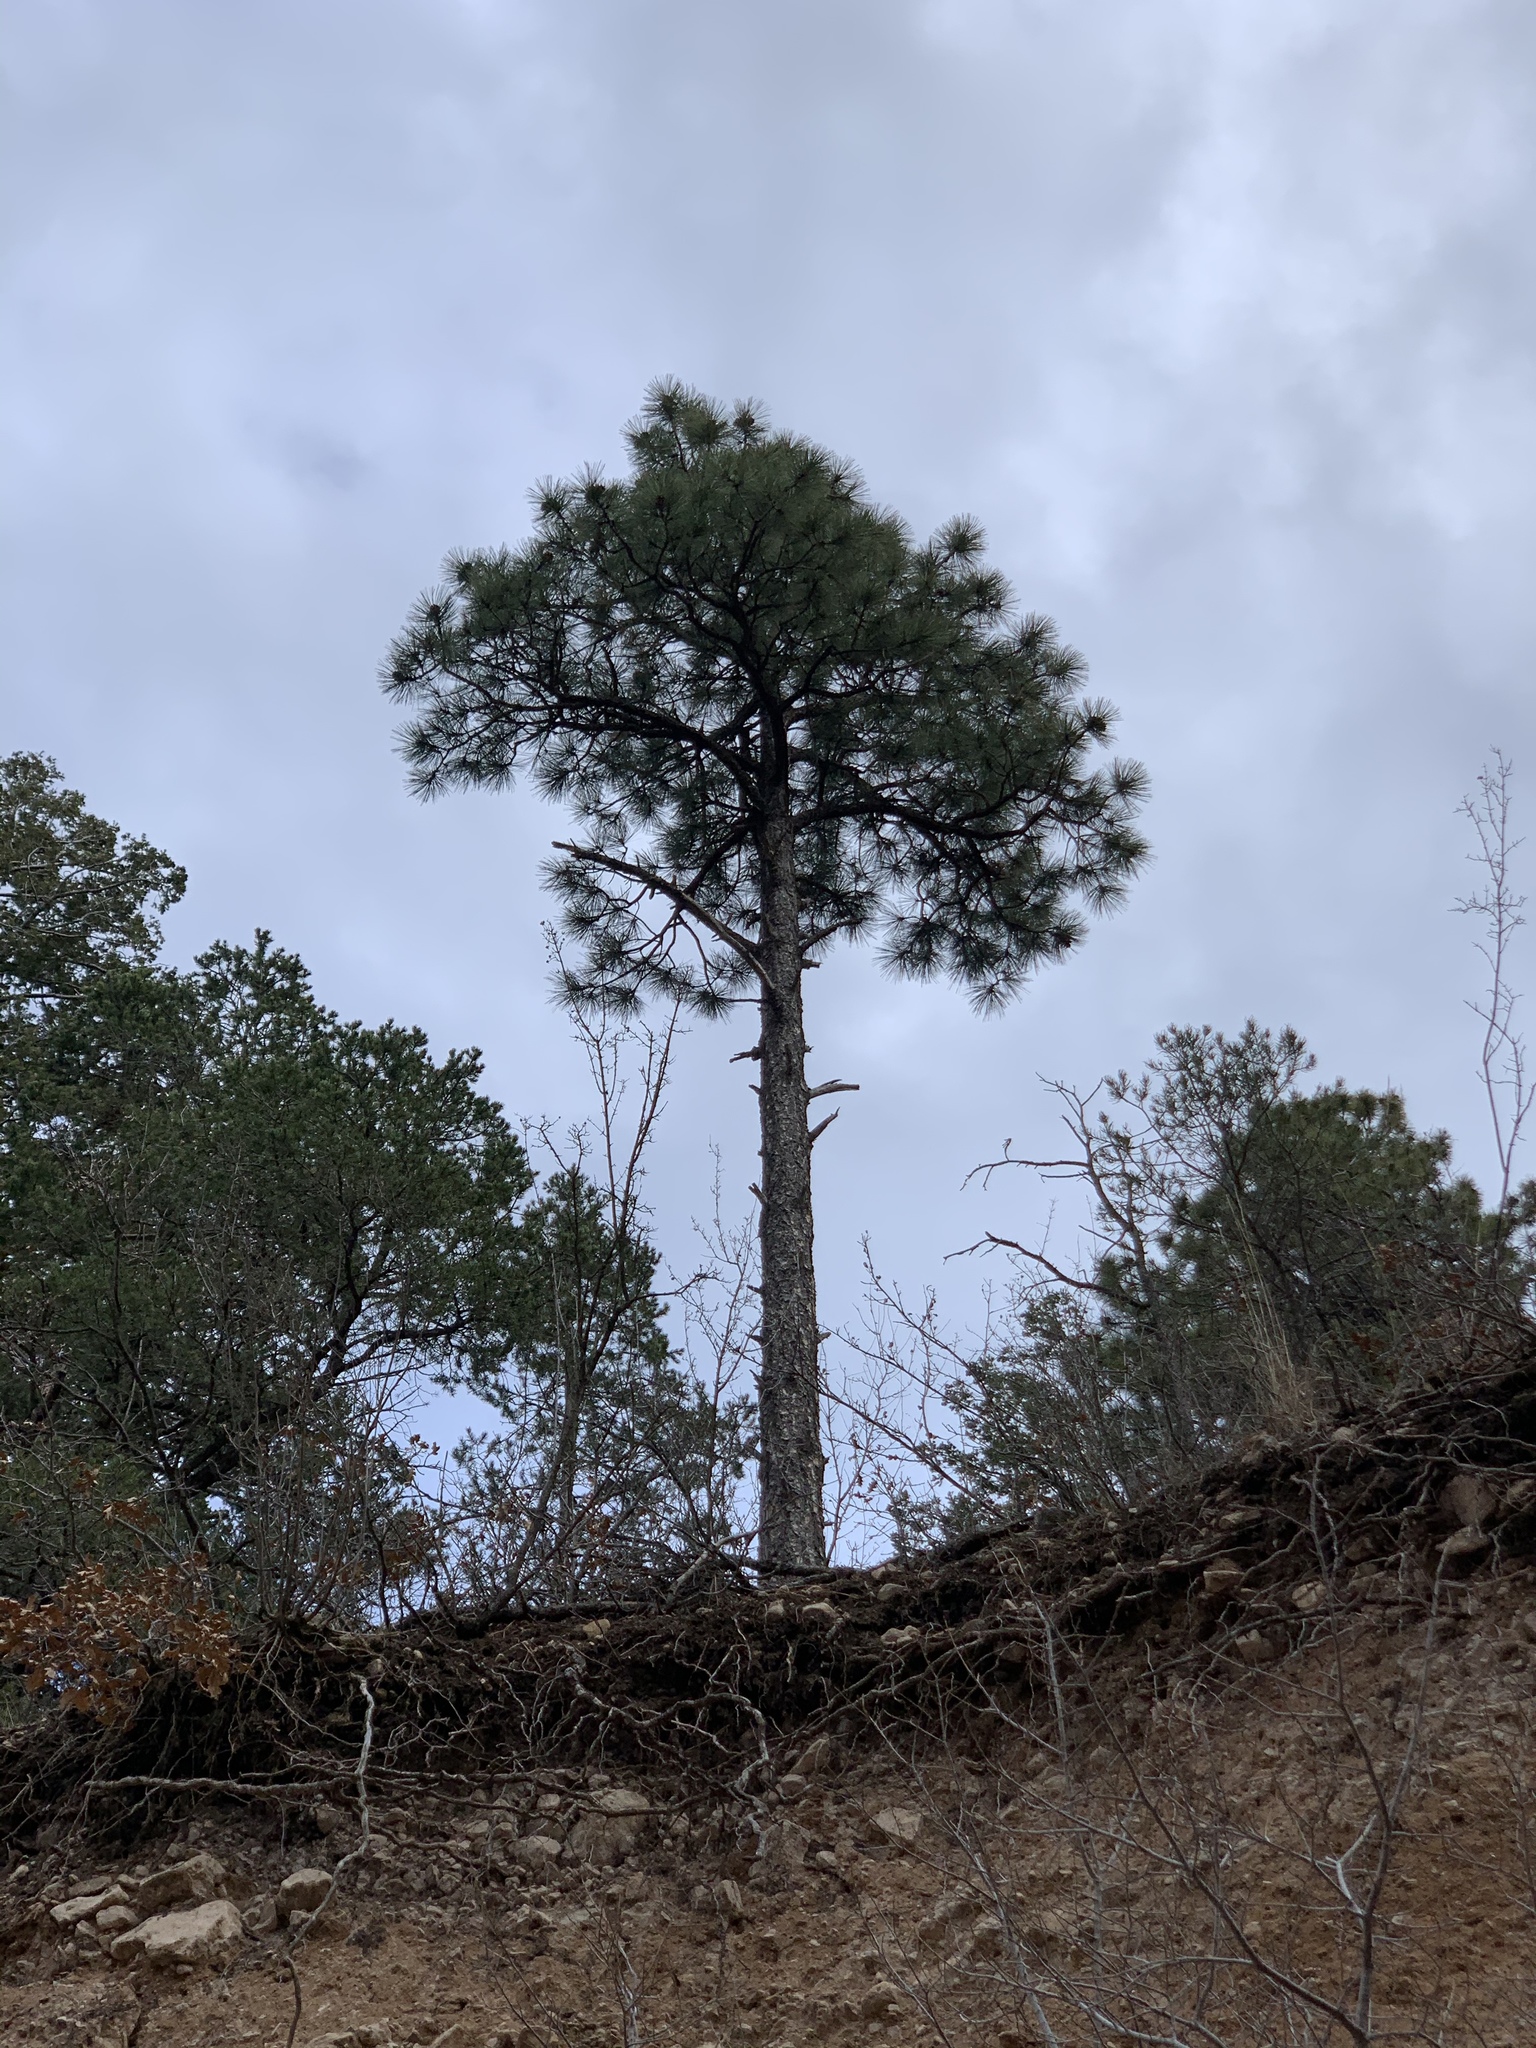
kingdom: Plantae
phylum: Tracheophyta
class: Pinopsida
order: Pinales
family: Pinaceae
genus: Pinus
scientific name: Pinus ponderosa
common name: Western yellow-pine
